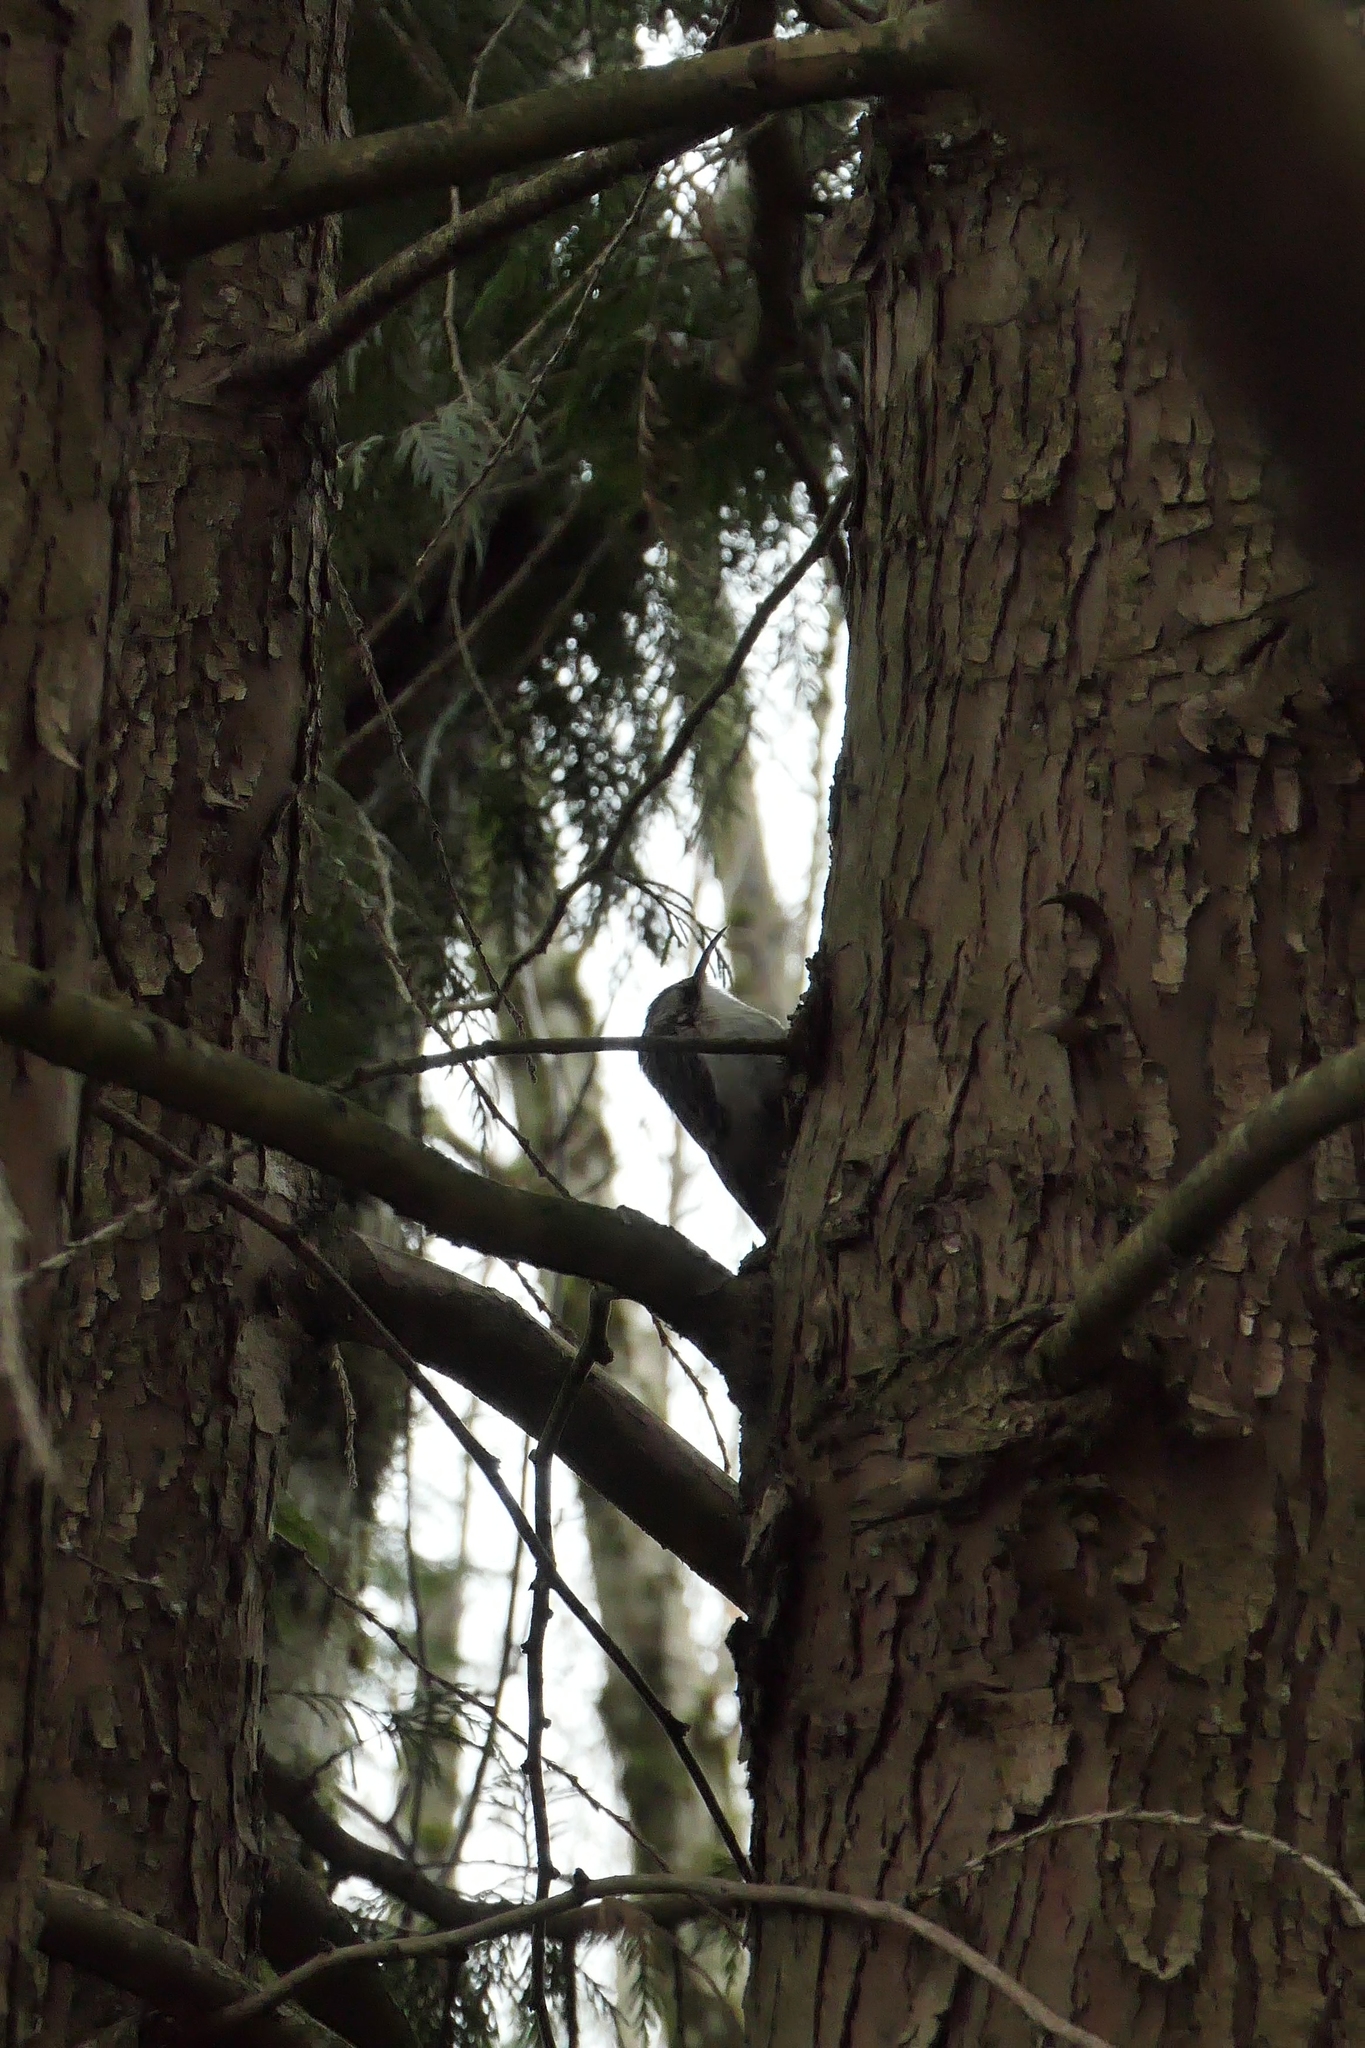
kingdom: Animalia
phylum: Chordata
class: Aves
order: Passeriformes
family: Certhiidae
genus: Certhia
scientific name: Certhia americana
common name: Brown creeper
